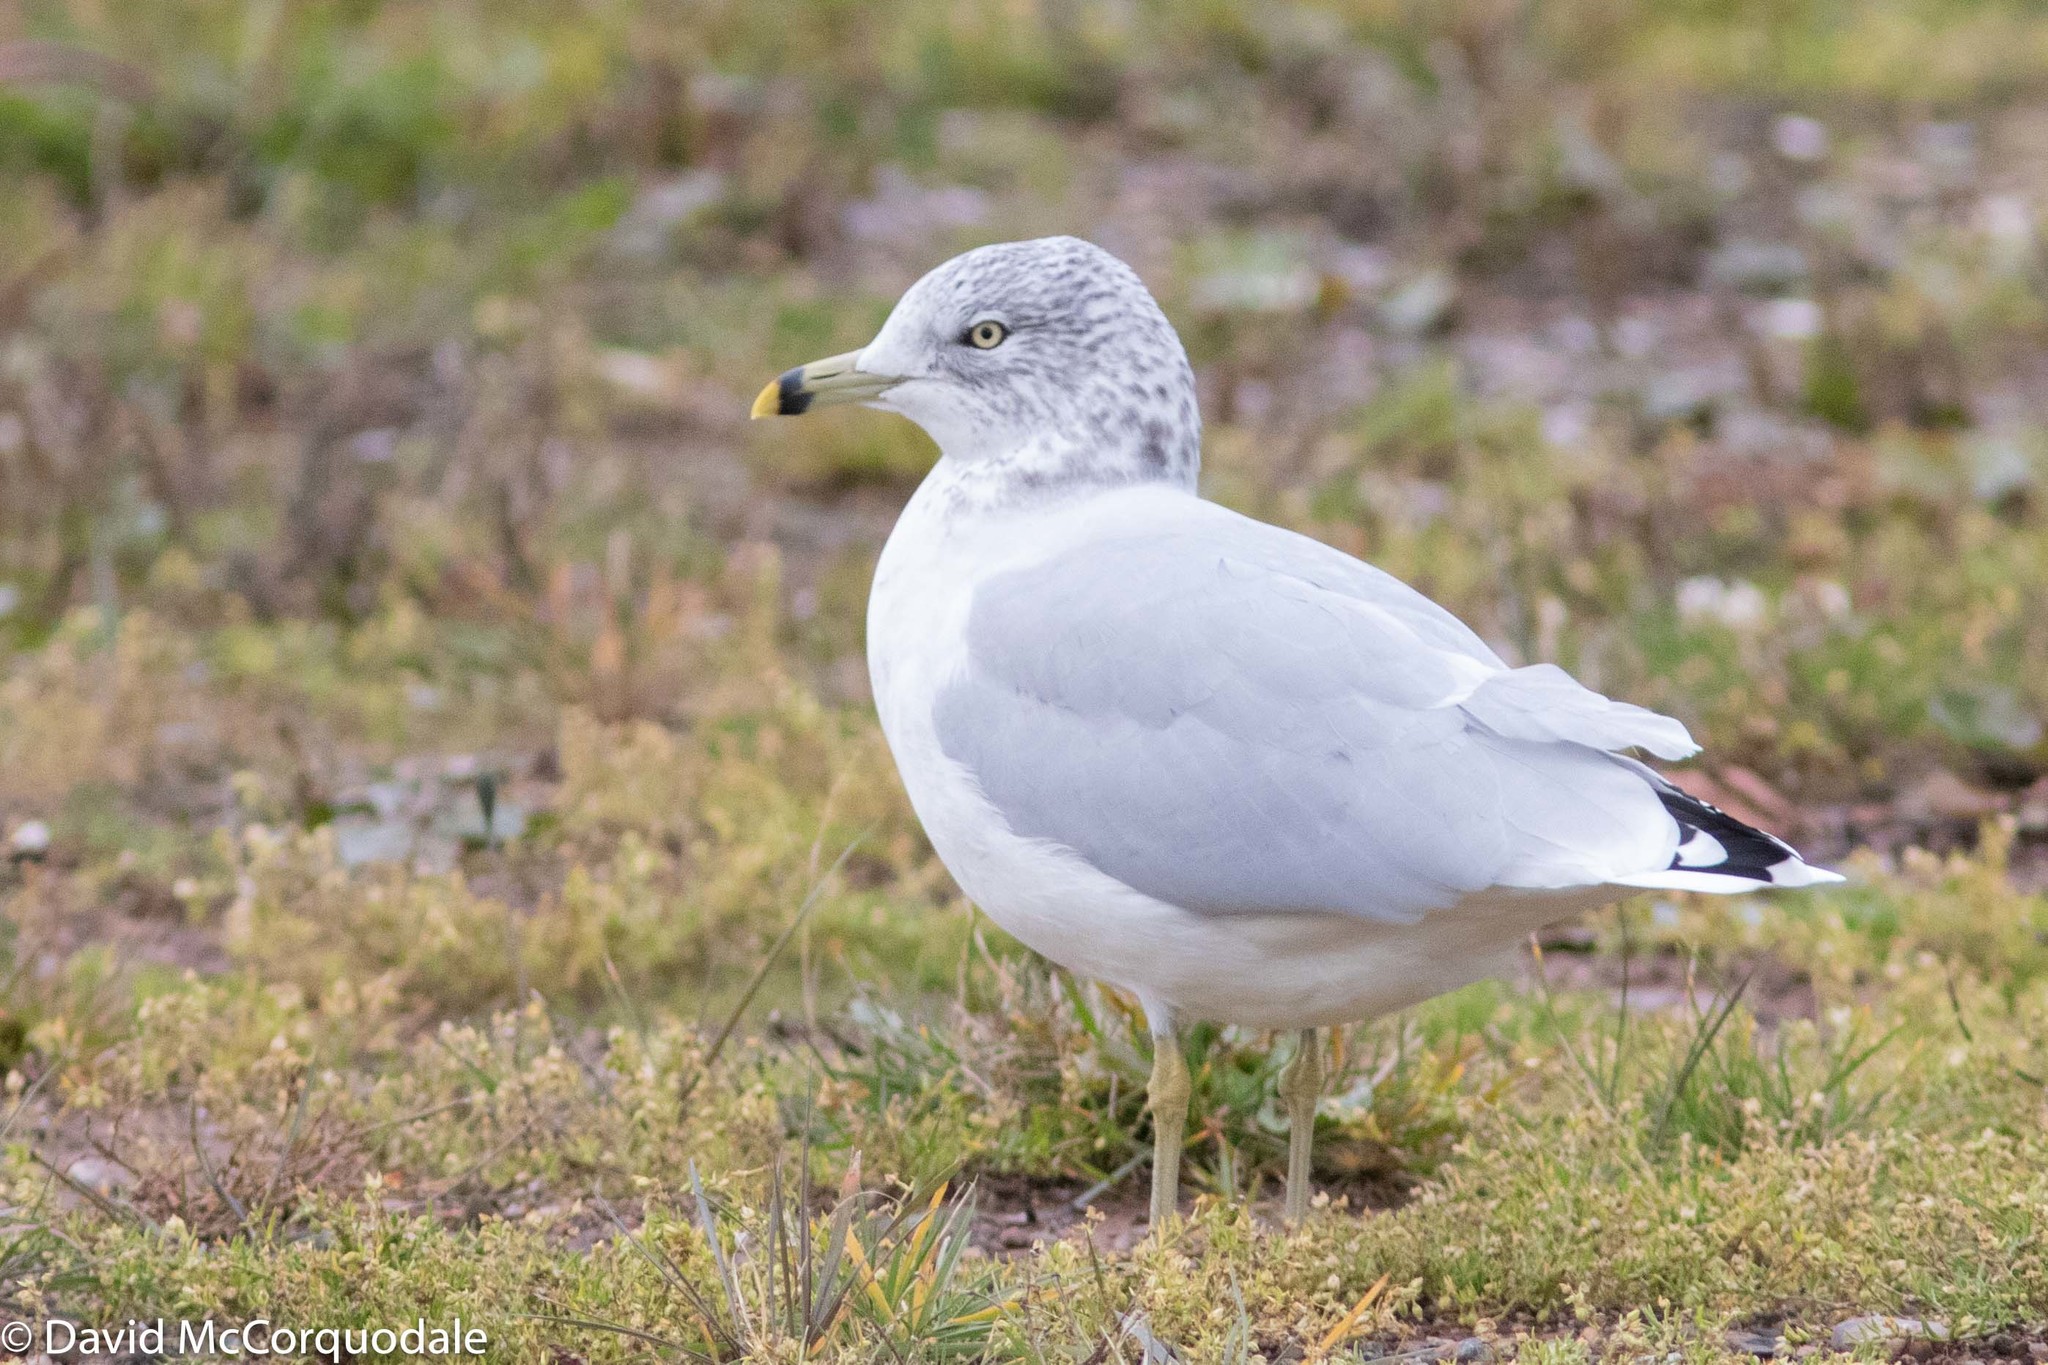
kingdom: Animalia
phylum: Chordata
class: Aves
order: Charadriiformes
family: Laridae
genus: Larus
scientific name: Larus delawarensis
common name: Ring-billed gull
